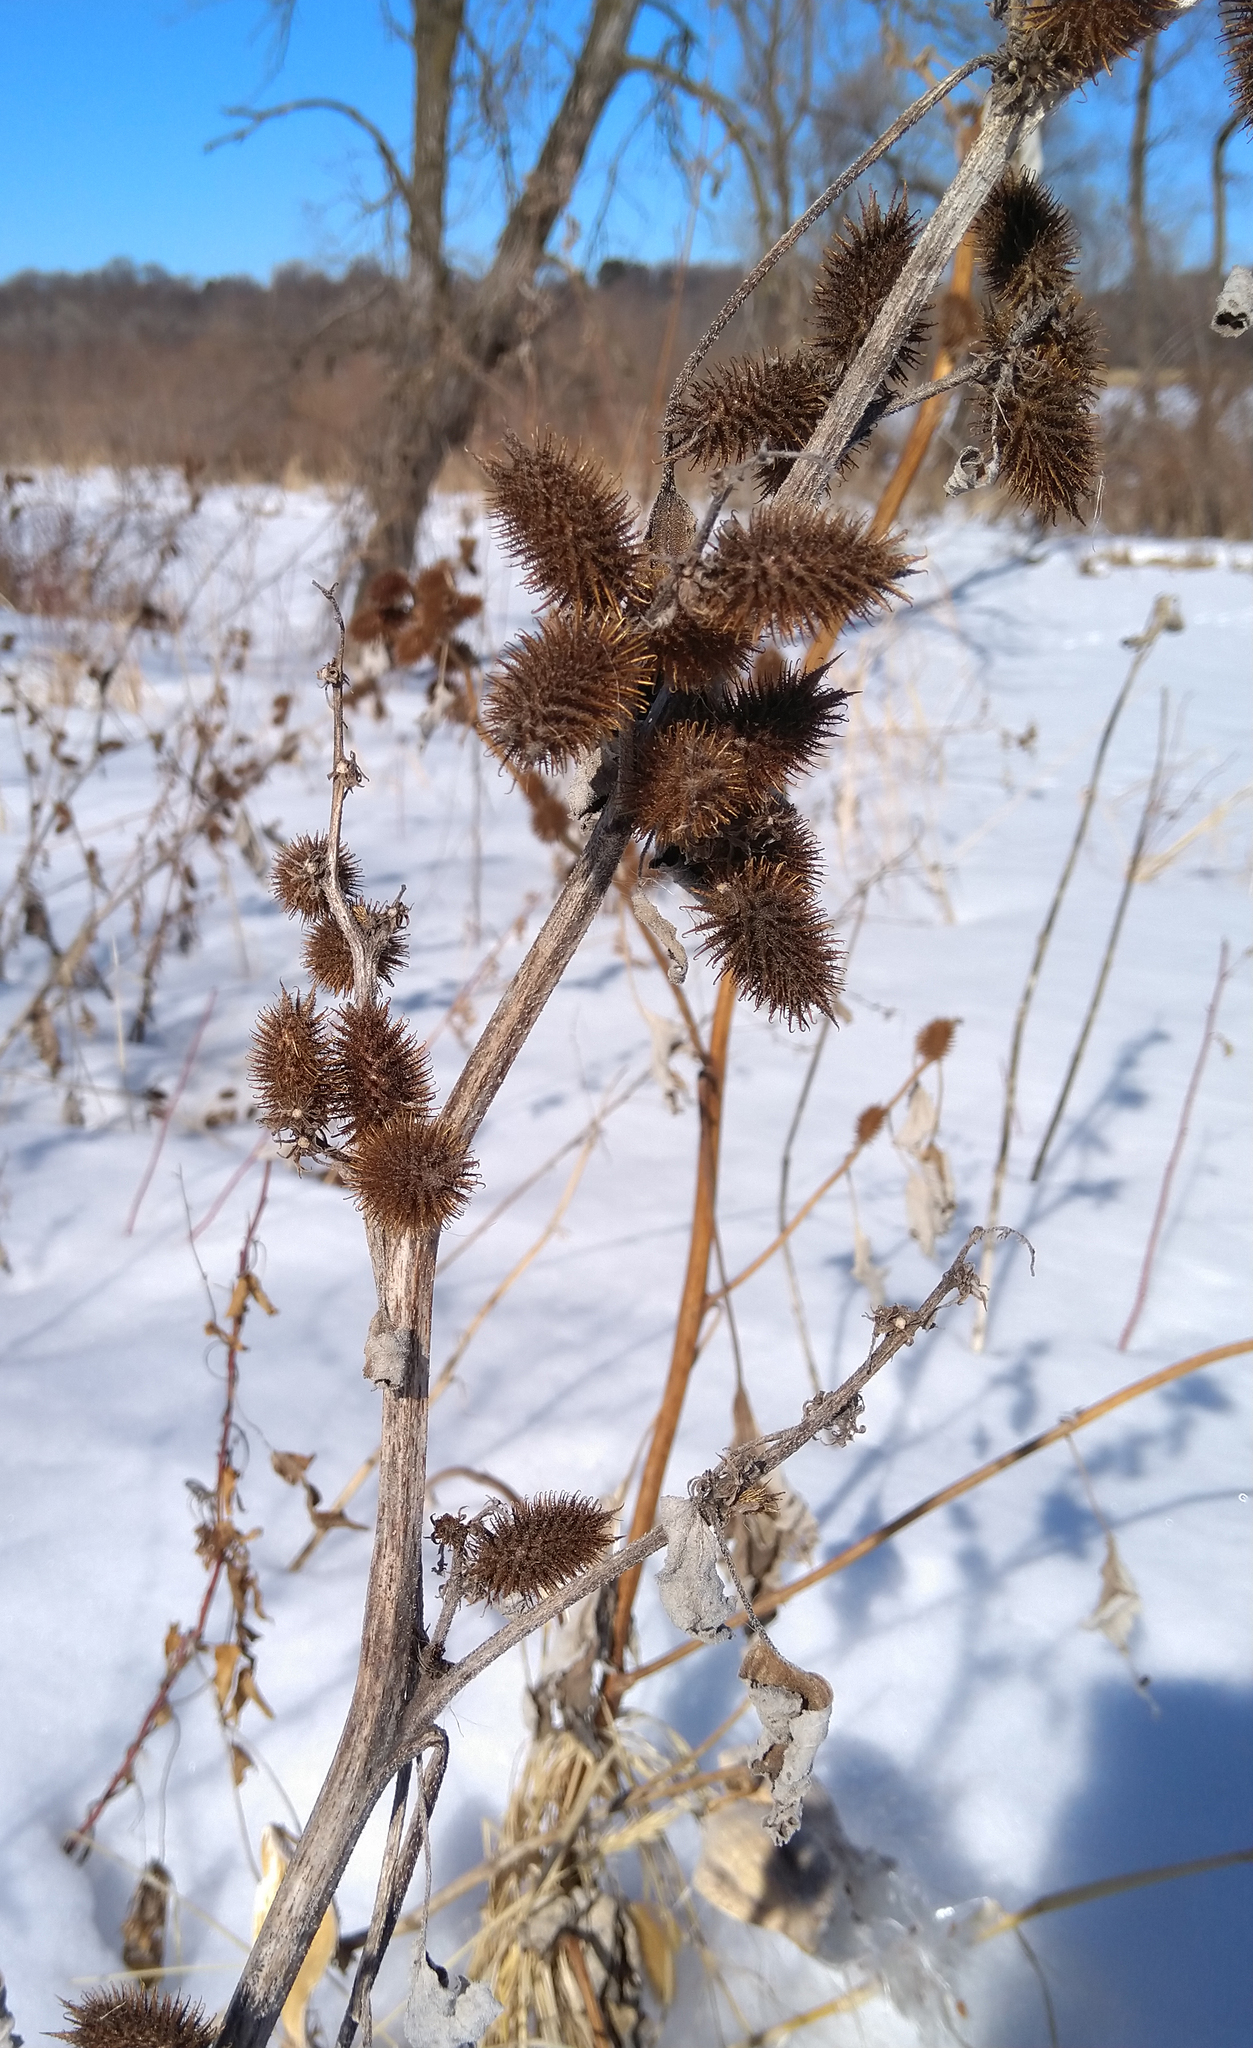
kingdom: Plantae
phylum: Tracheophyta
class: Magnoliopsida
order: Asterales
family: Asteraceae
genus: Xanthium
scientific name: Xanthium strumarium
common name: Rough cocklebur
